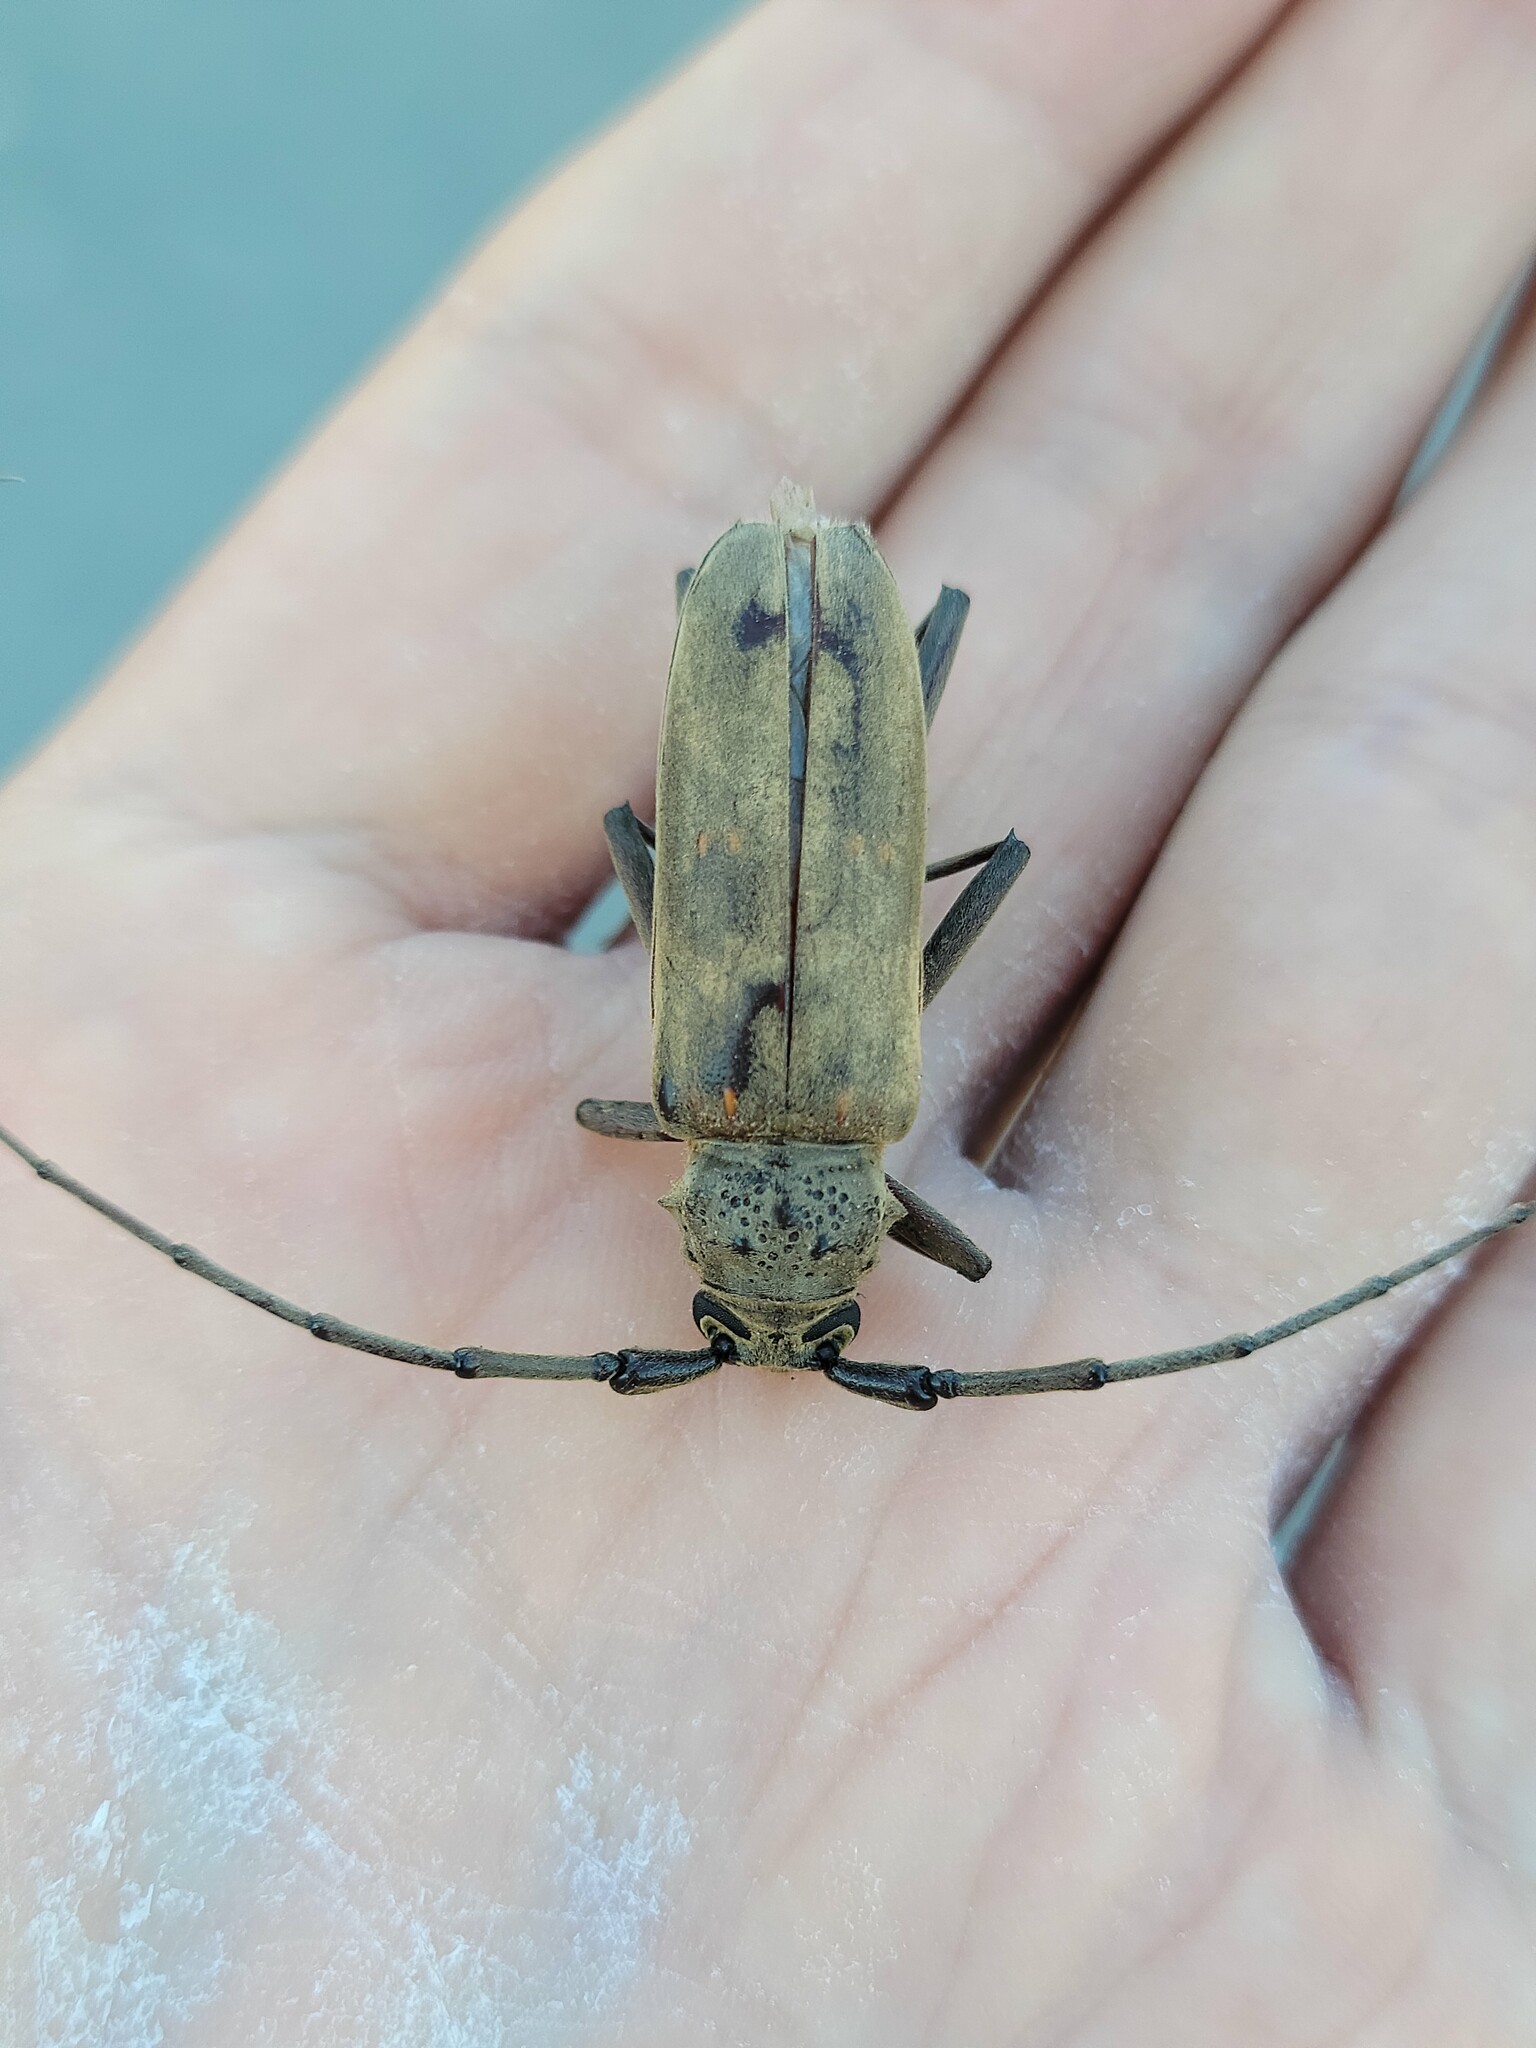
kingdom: Animalia
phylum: Arthropoda
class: Insecta
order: Coleoptera
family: Cerambycidae
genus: Susuacanga
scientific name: Susuacanga stigmatica
